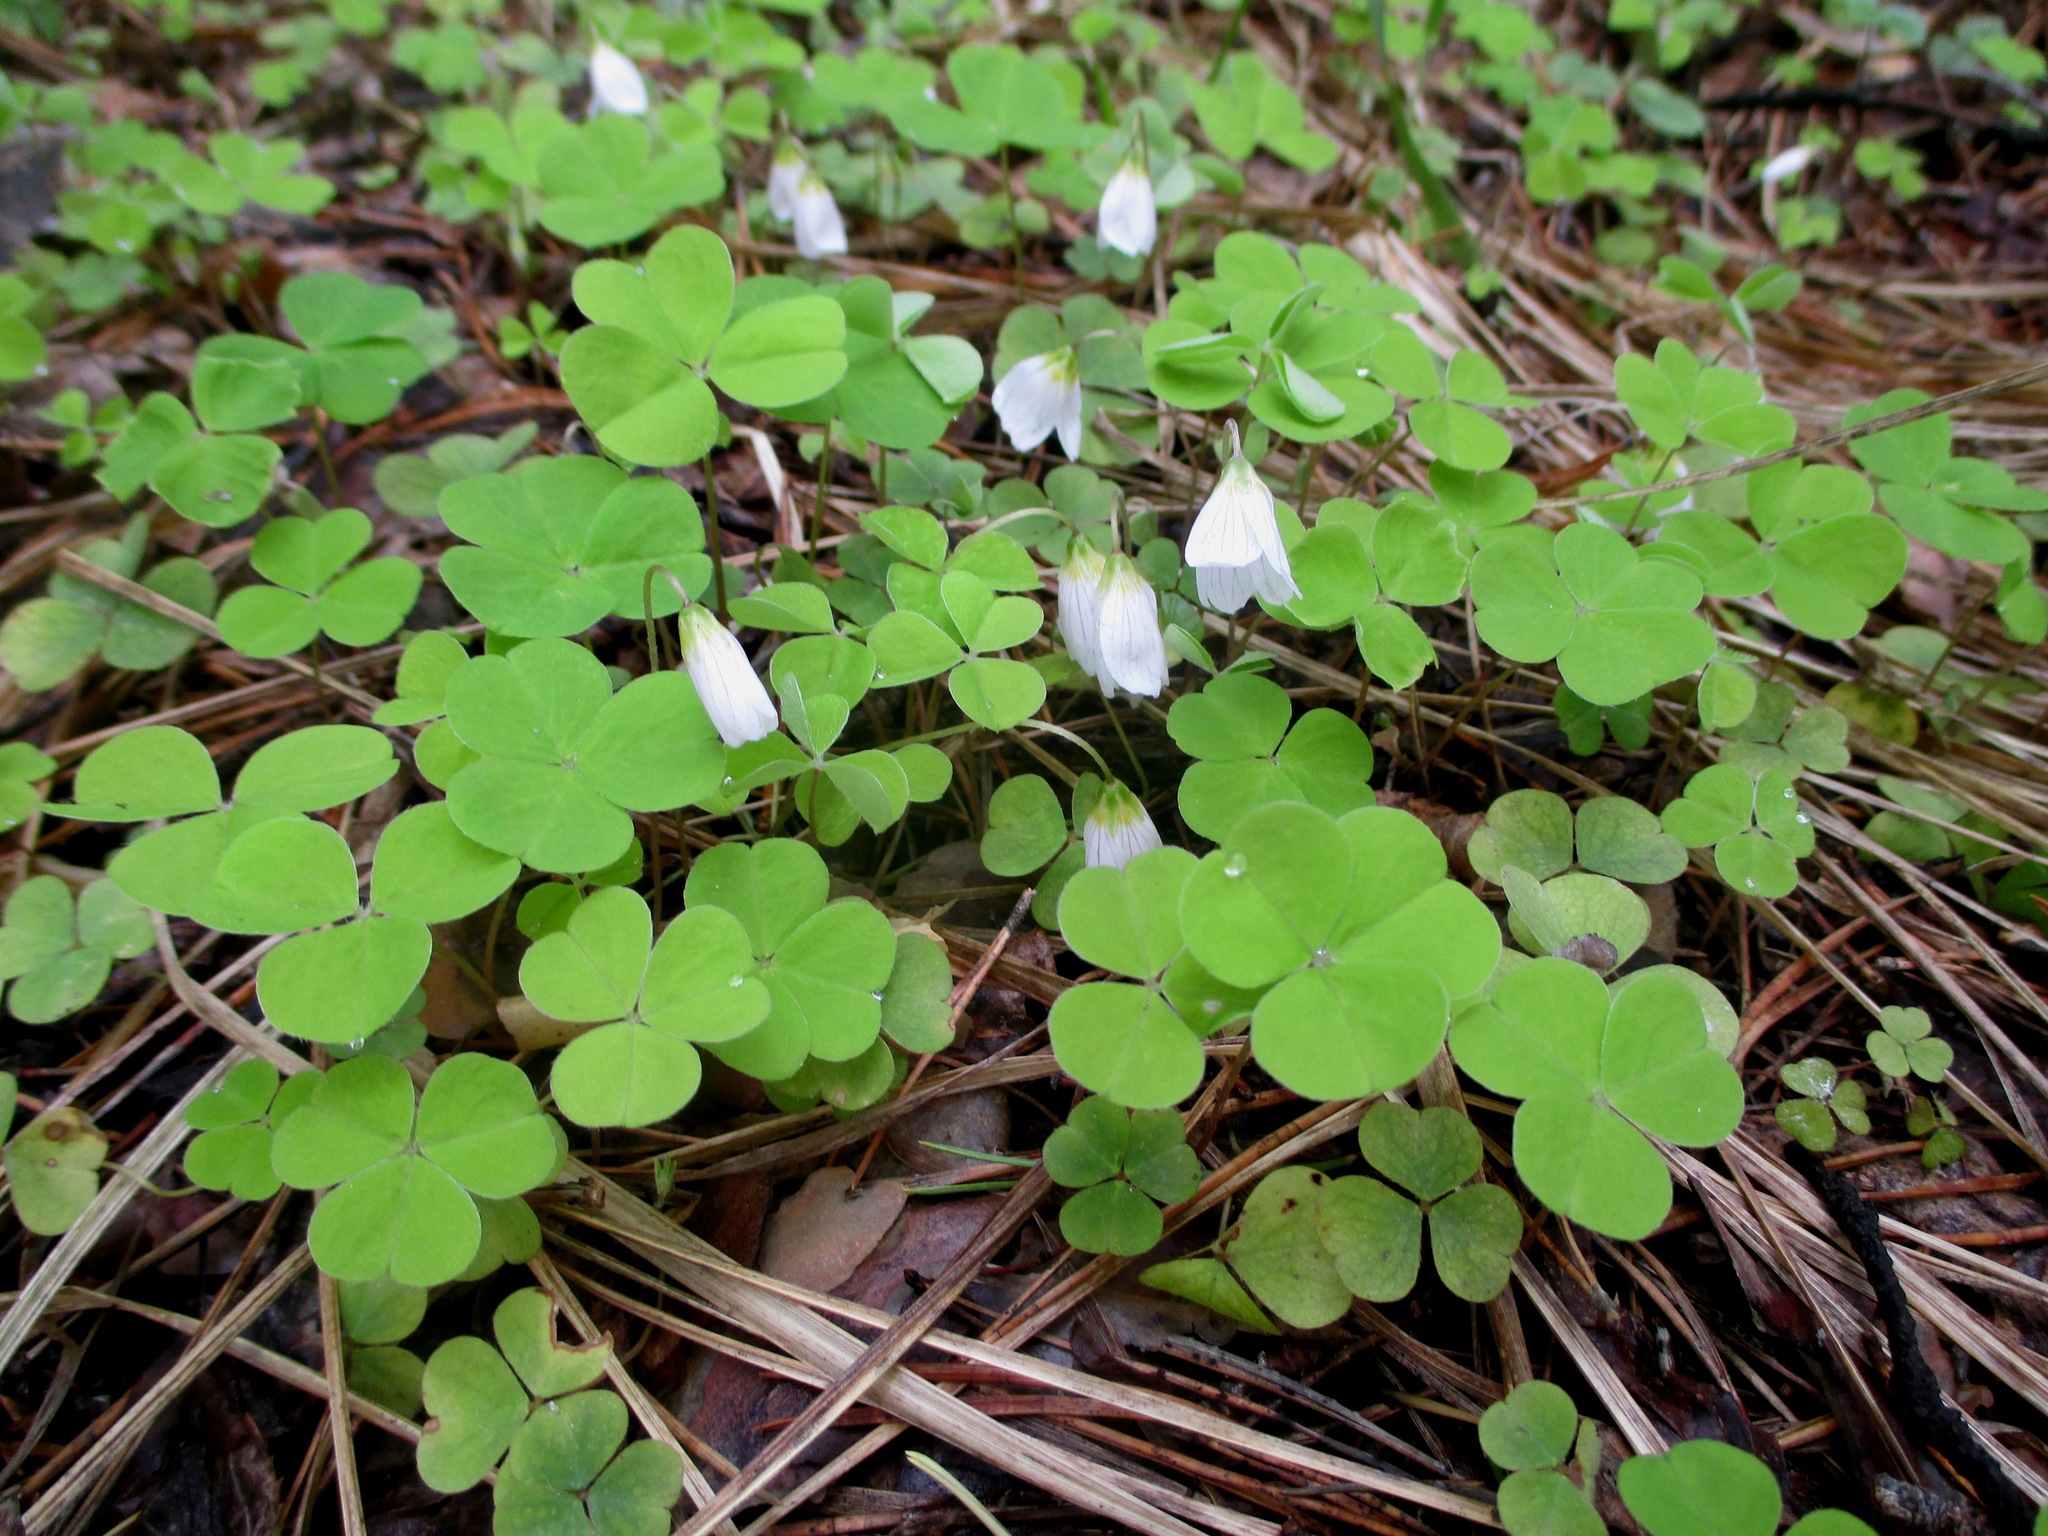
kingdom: Plantae
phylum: Tracheophyta
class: Magnoliopsida
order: Oxalidales
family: Oxalidaceae
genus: Oxalis
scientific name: Oxalis acetosella
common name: Wood-sorrel
